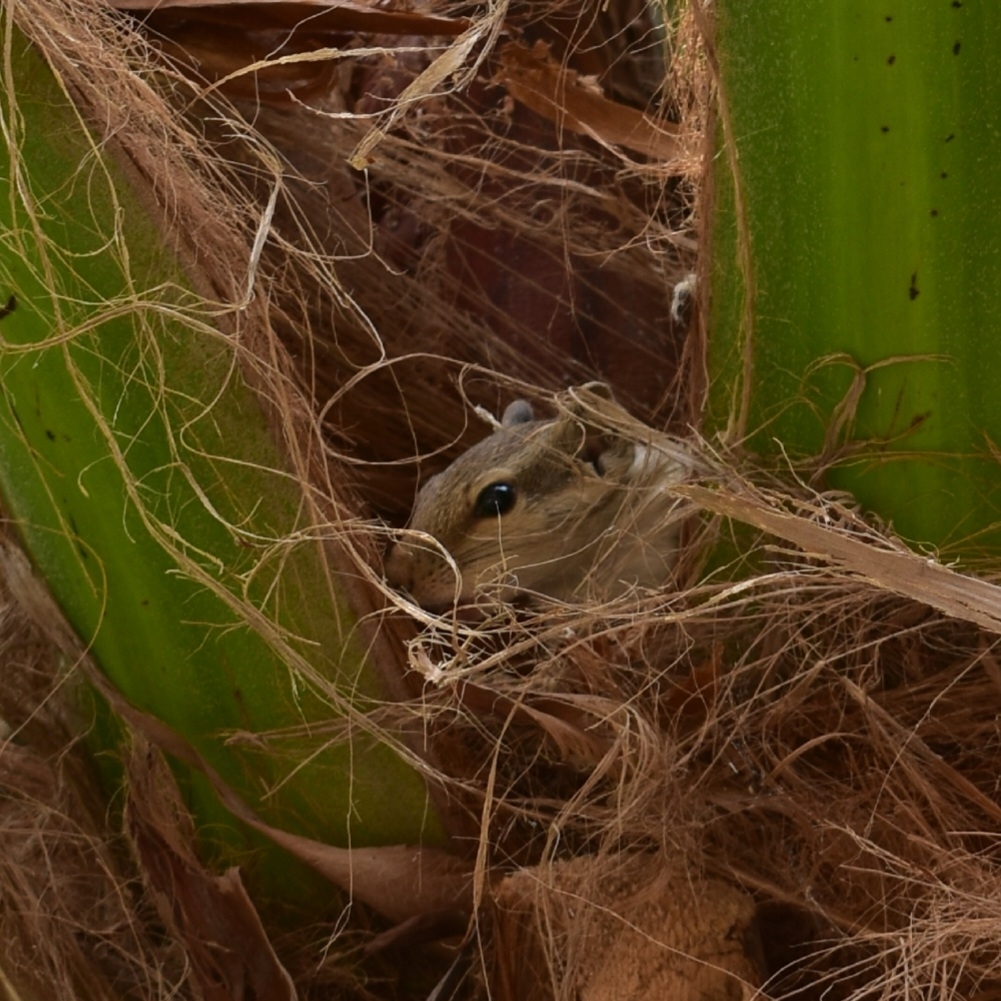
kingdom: Animalia
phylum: Chordata
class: Mammalia
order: Rodentia
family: Sciuridae
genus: Funambulus
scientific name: Funambulus pennantii
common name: Northern palm squirrel
